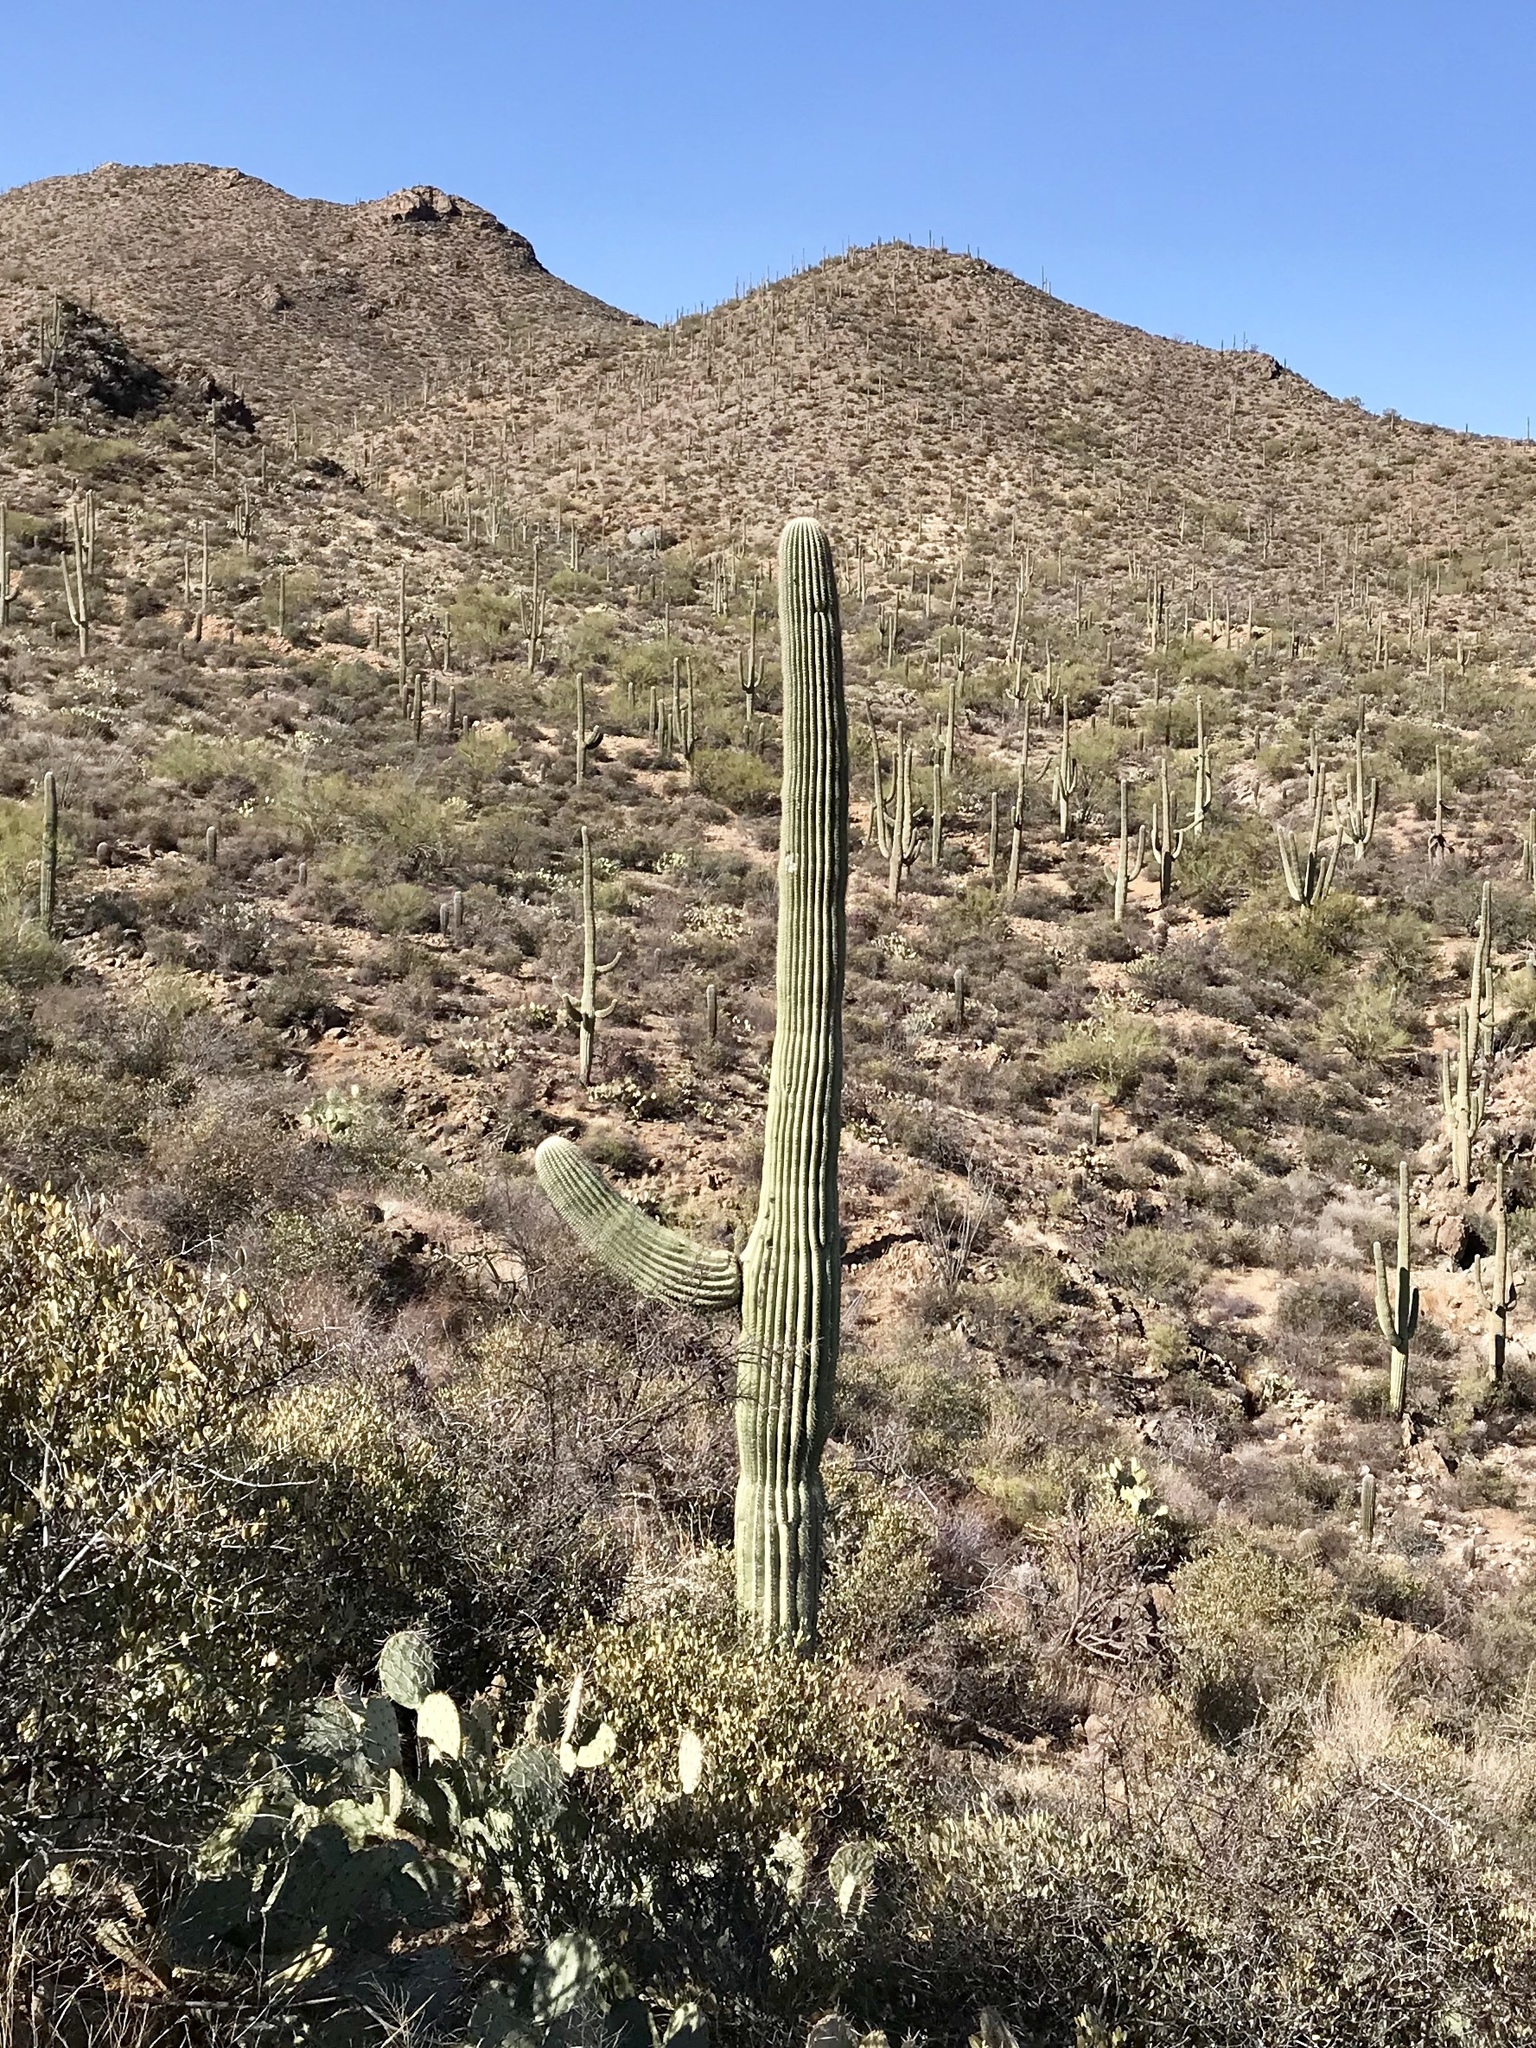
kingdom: Plantae
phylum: Tracheophyta
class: Magnoliopsida
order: Caryophyllales
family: Cactaceae
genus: Carnegiea
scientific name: Carnegiea gigantea
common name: Saguaro
